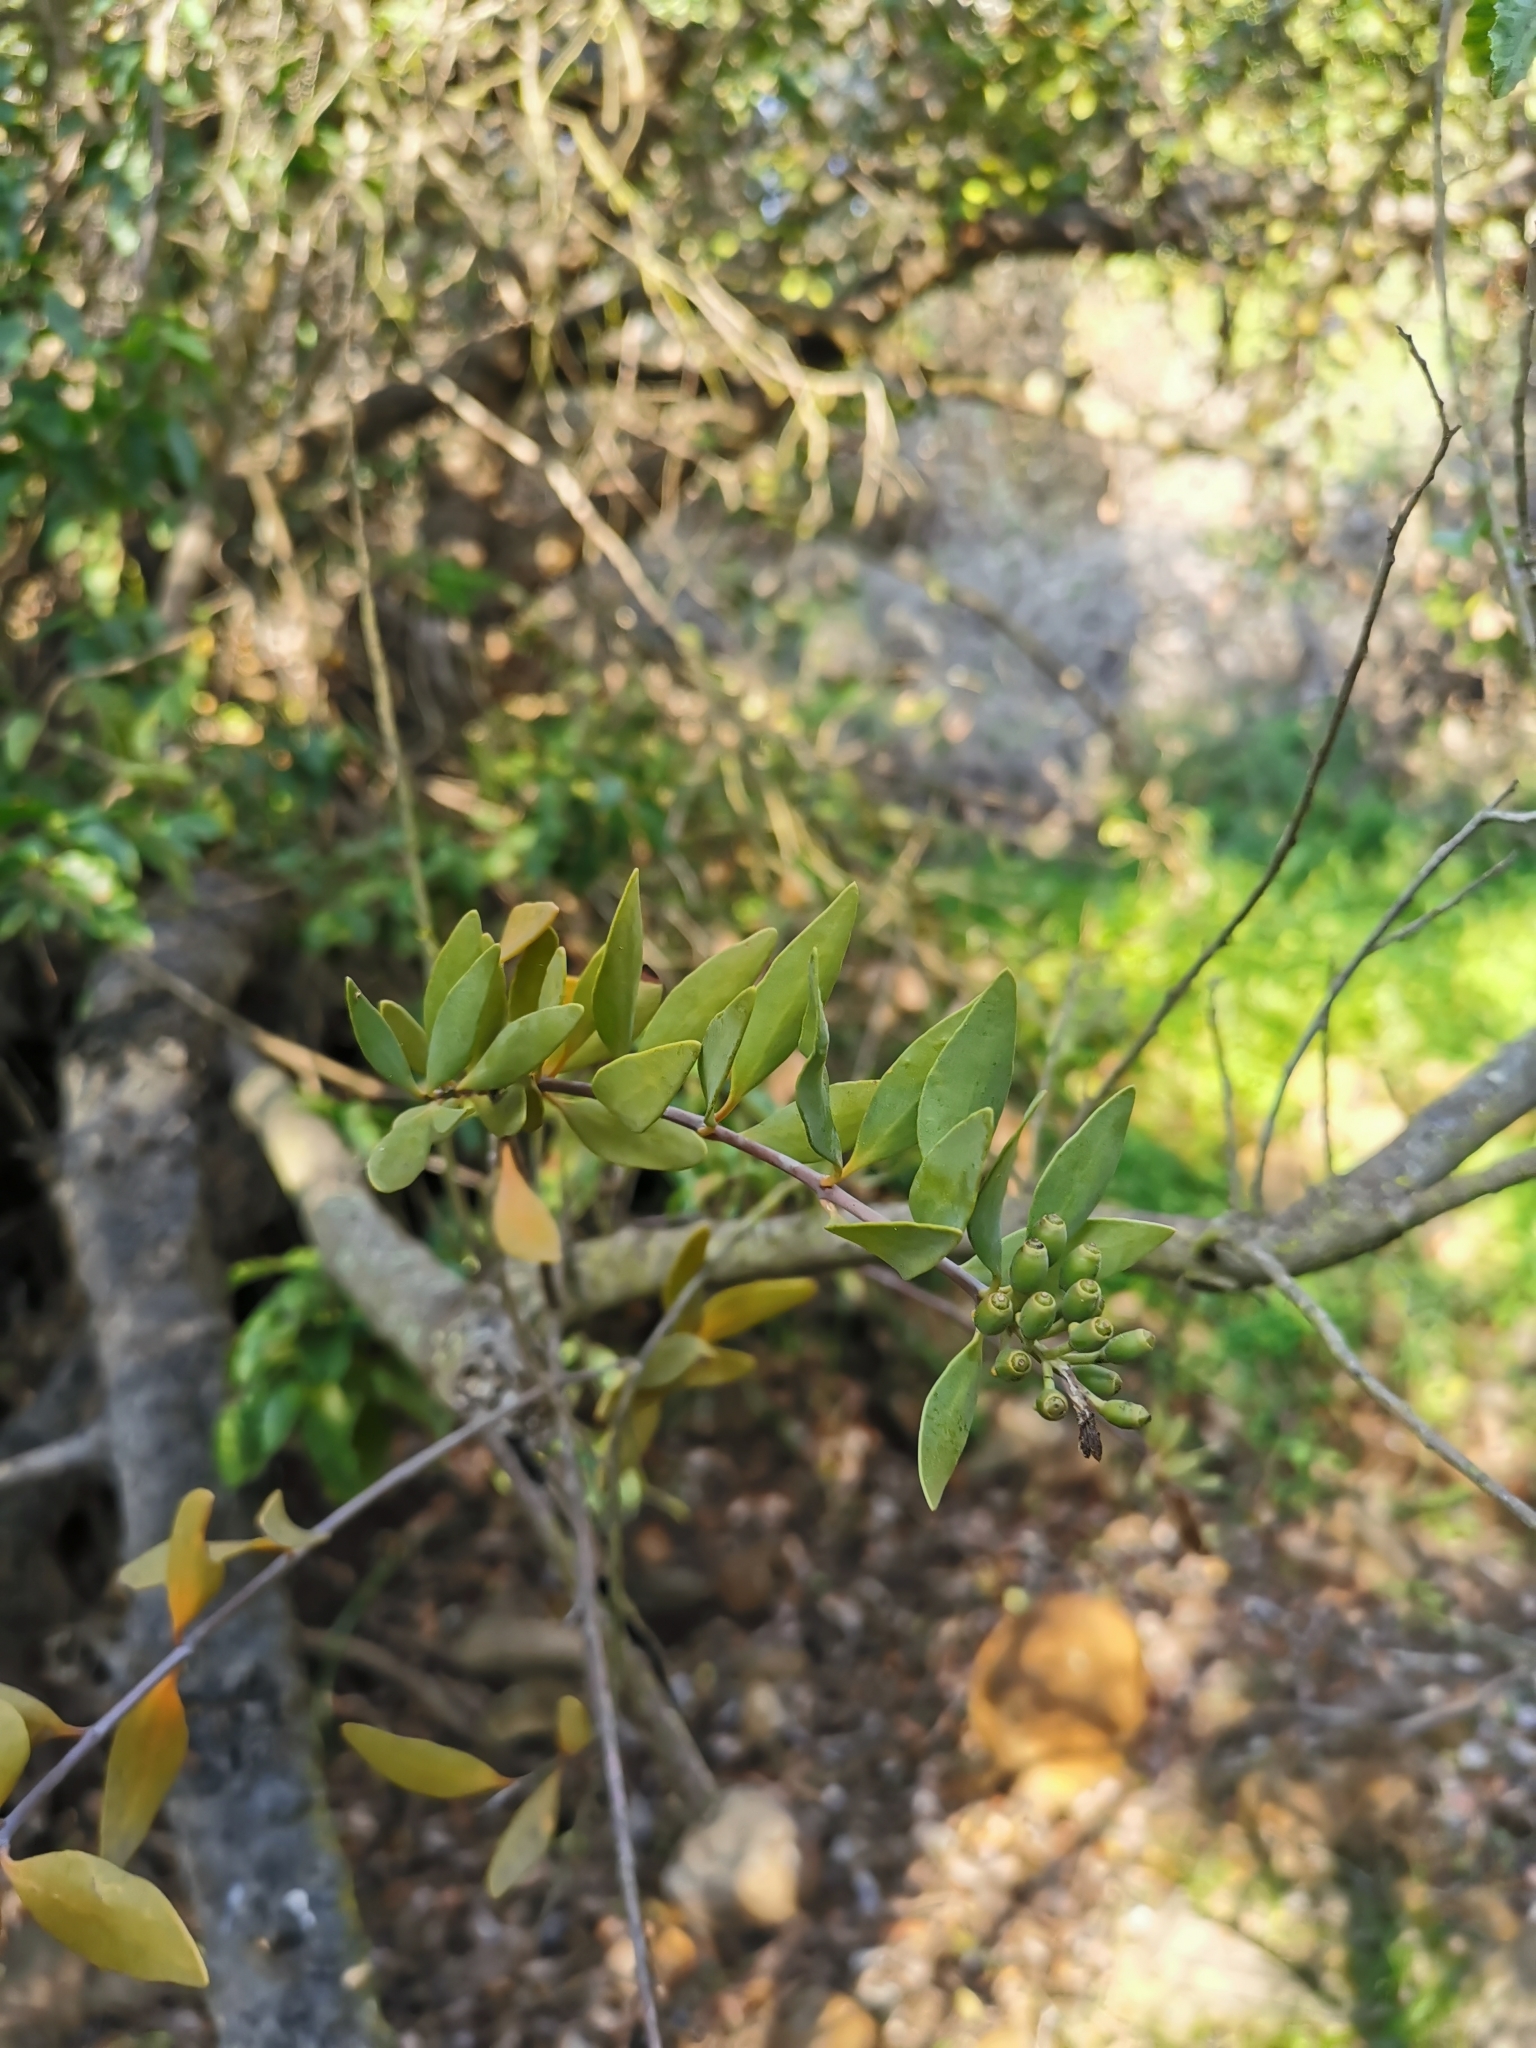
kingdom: Plantae
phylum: Tracheophyta
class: Magnoliopsida
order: Santalales
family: Loranthaceae
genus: Tristerix
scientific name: Tristerix verticillatus
